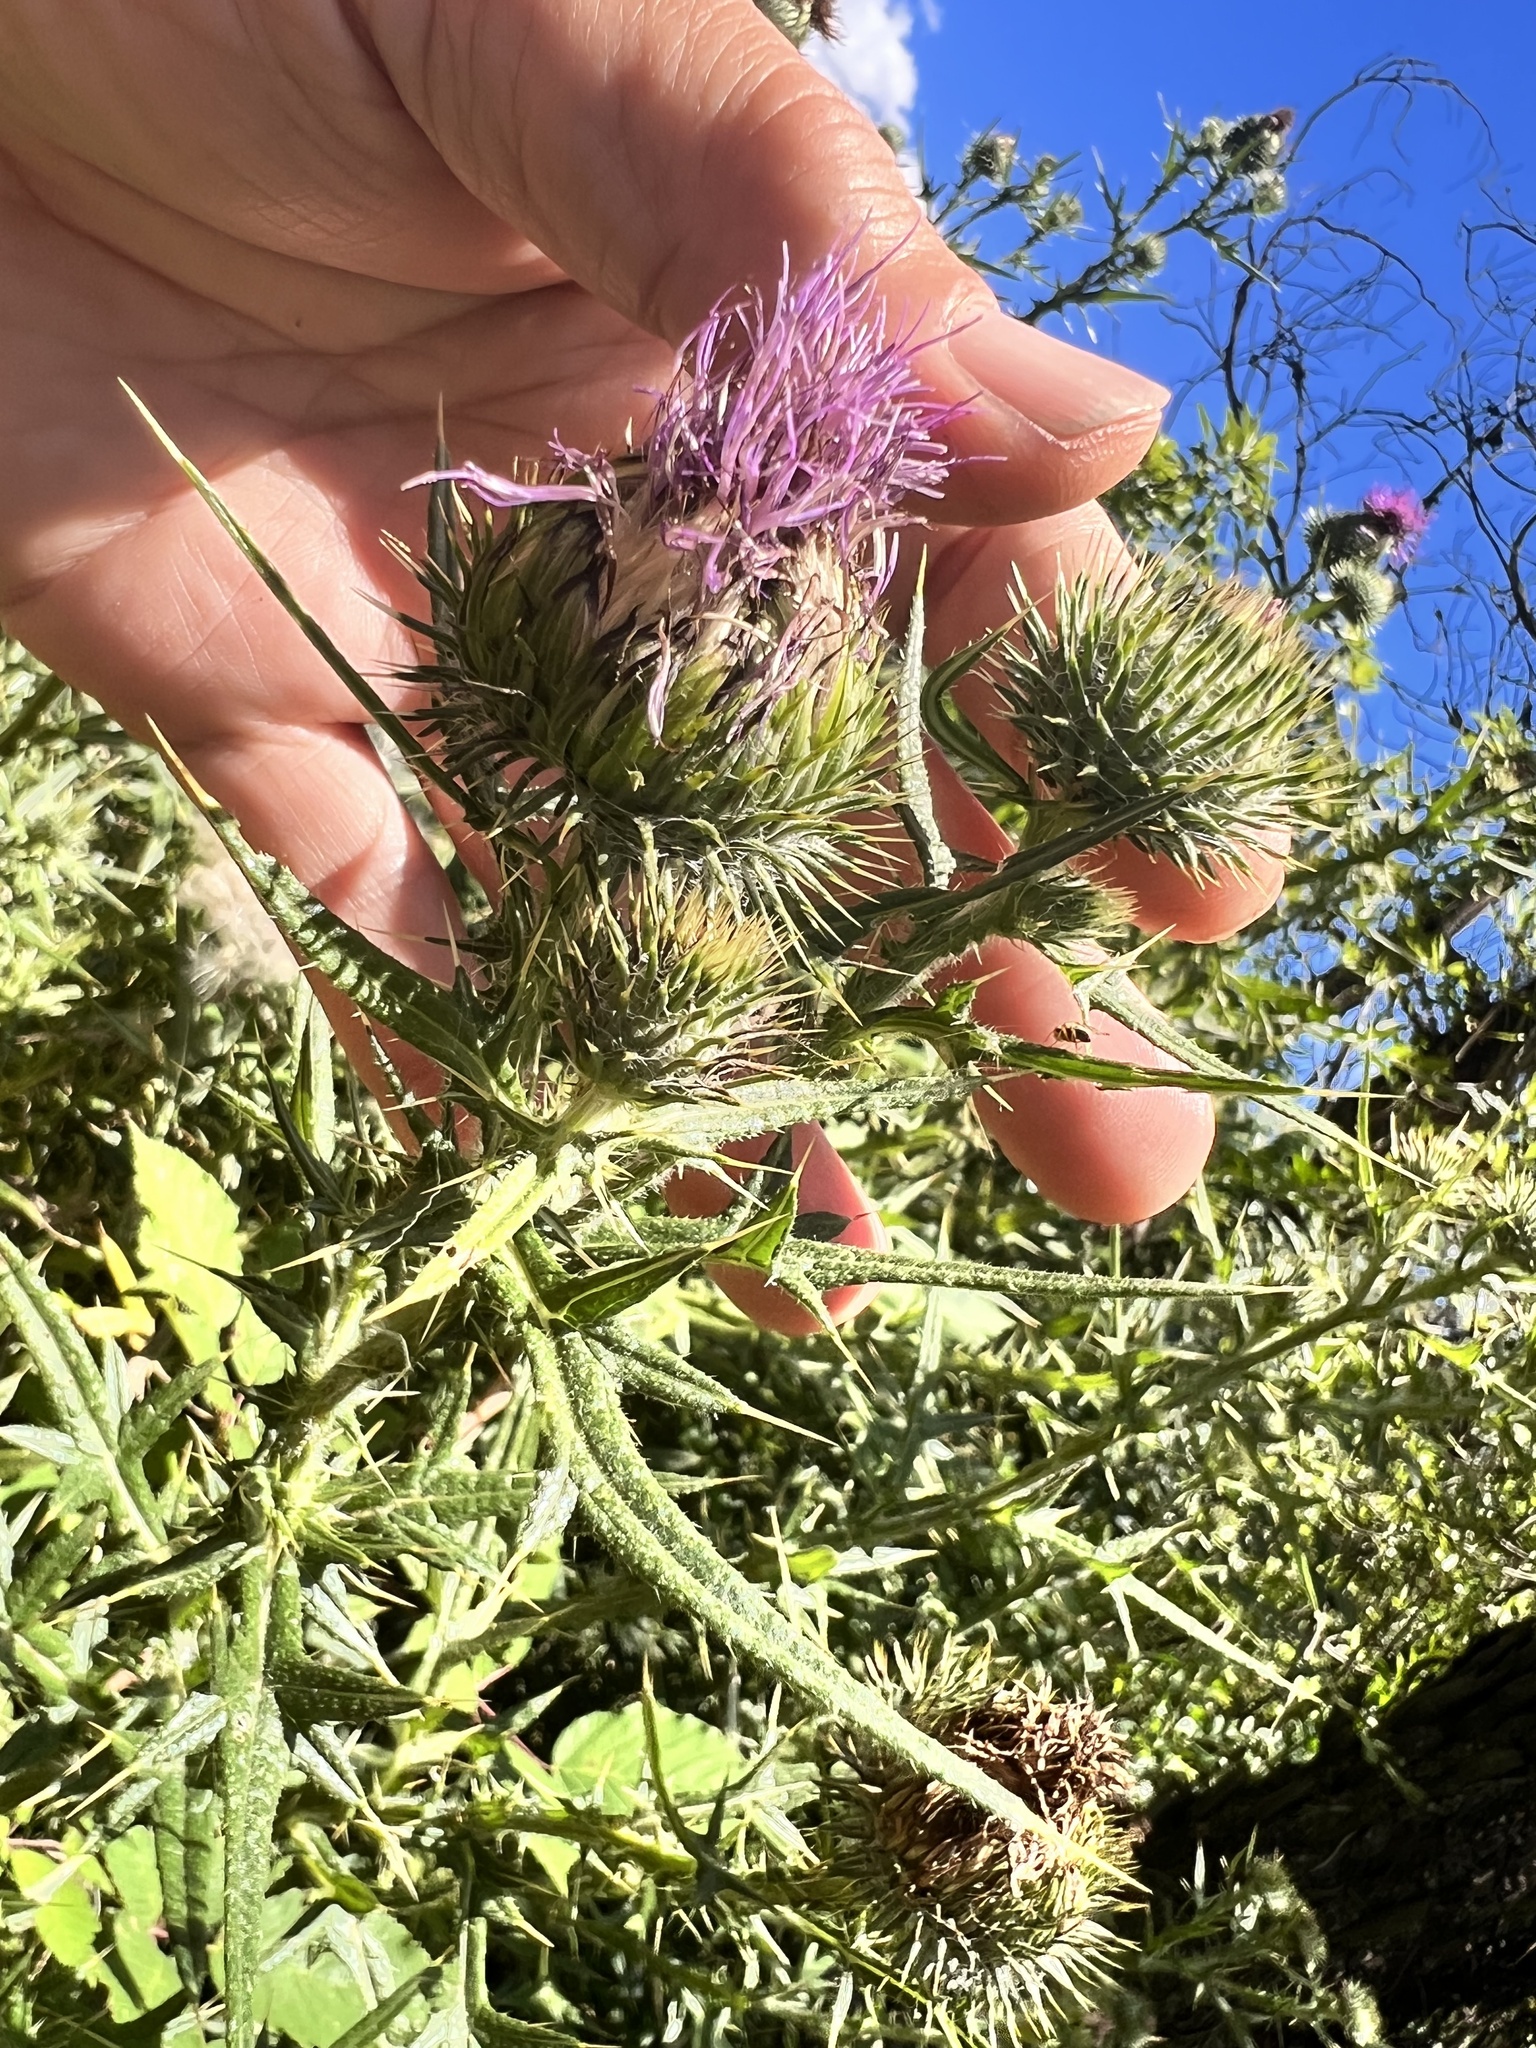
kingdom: Plantae
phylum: Tracheophyta
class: Magnoliopsida
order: Asterales
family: Asteraceae
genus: Cirsium
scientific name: Cirsium vulgare
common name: Bull thistle
